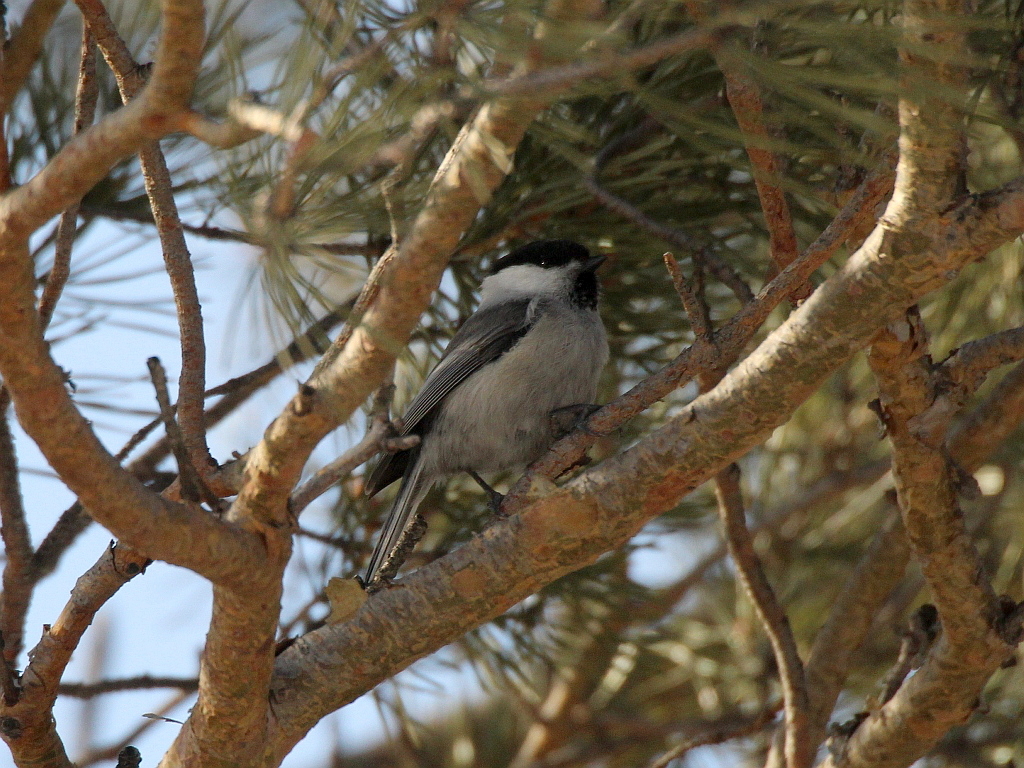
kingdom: Animalia
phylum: Chordata
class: Aves
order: Passeriformes
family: Paridae
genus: Poecile
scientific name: Poecile montanus
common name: Willow tit
